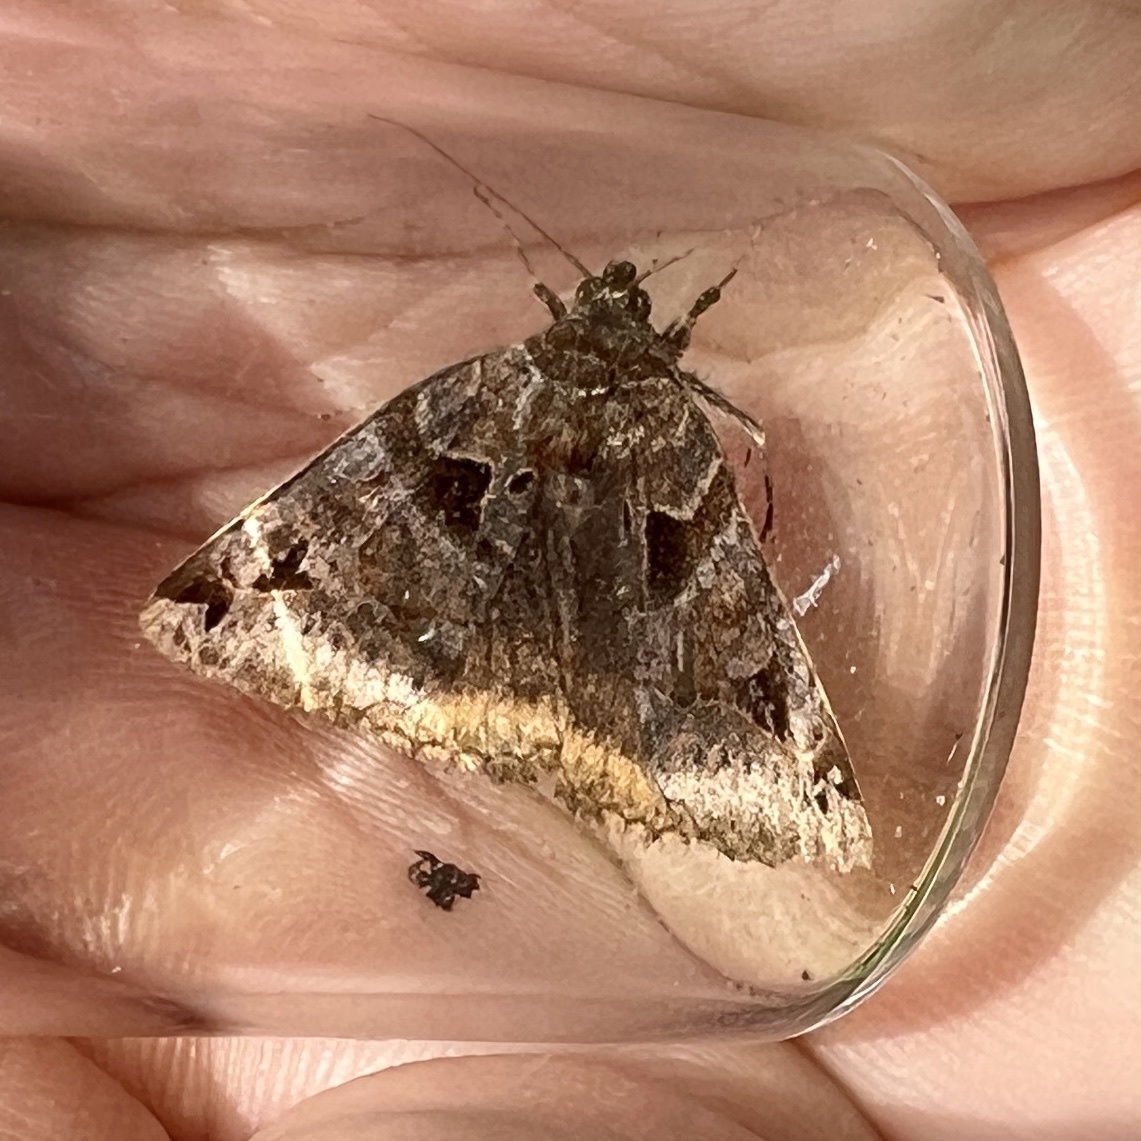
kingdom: Animalia
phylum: Arthropoda
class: Insecta
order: Lepidoptera
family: Erebidae
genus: Euclidia
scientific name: Euclidia cuspidea
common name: Toothed somberwing
